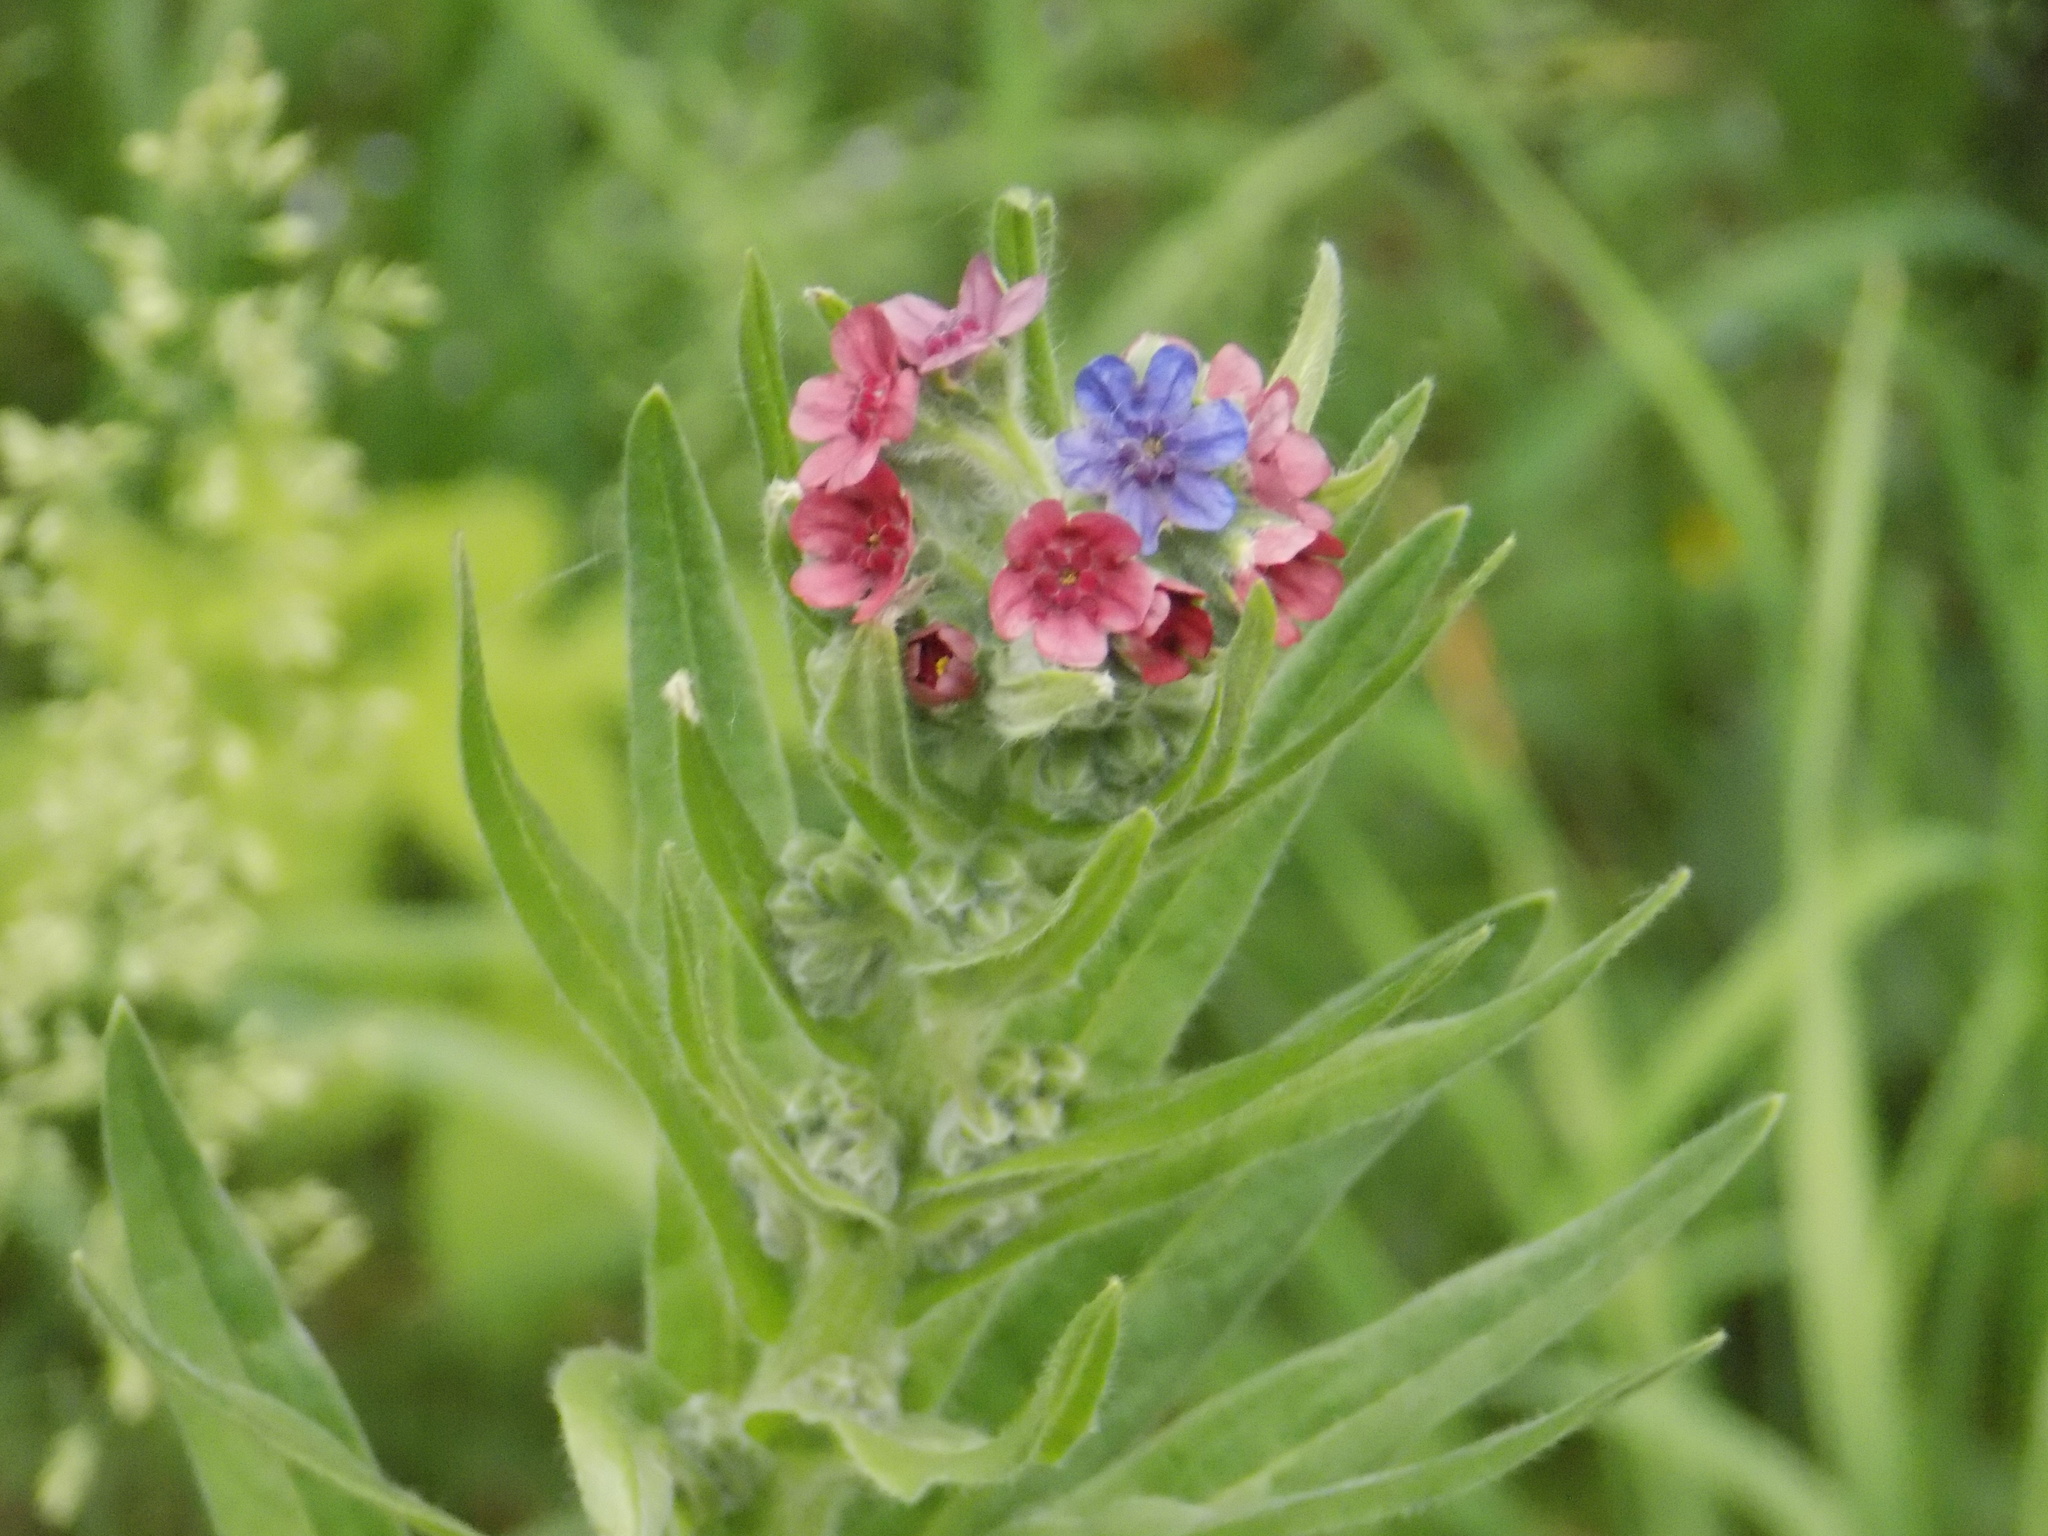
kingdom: Plantae
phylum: Tracheophyta
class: Magnoliopsida
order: Boraginales
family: Boraginaceae
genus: Cynoglossum
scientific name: Cynoglossum officinale
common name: Hound's-tongue
